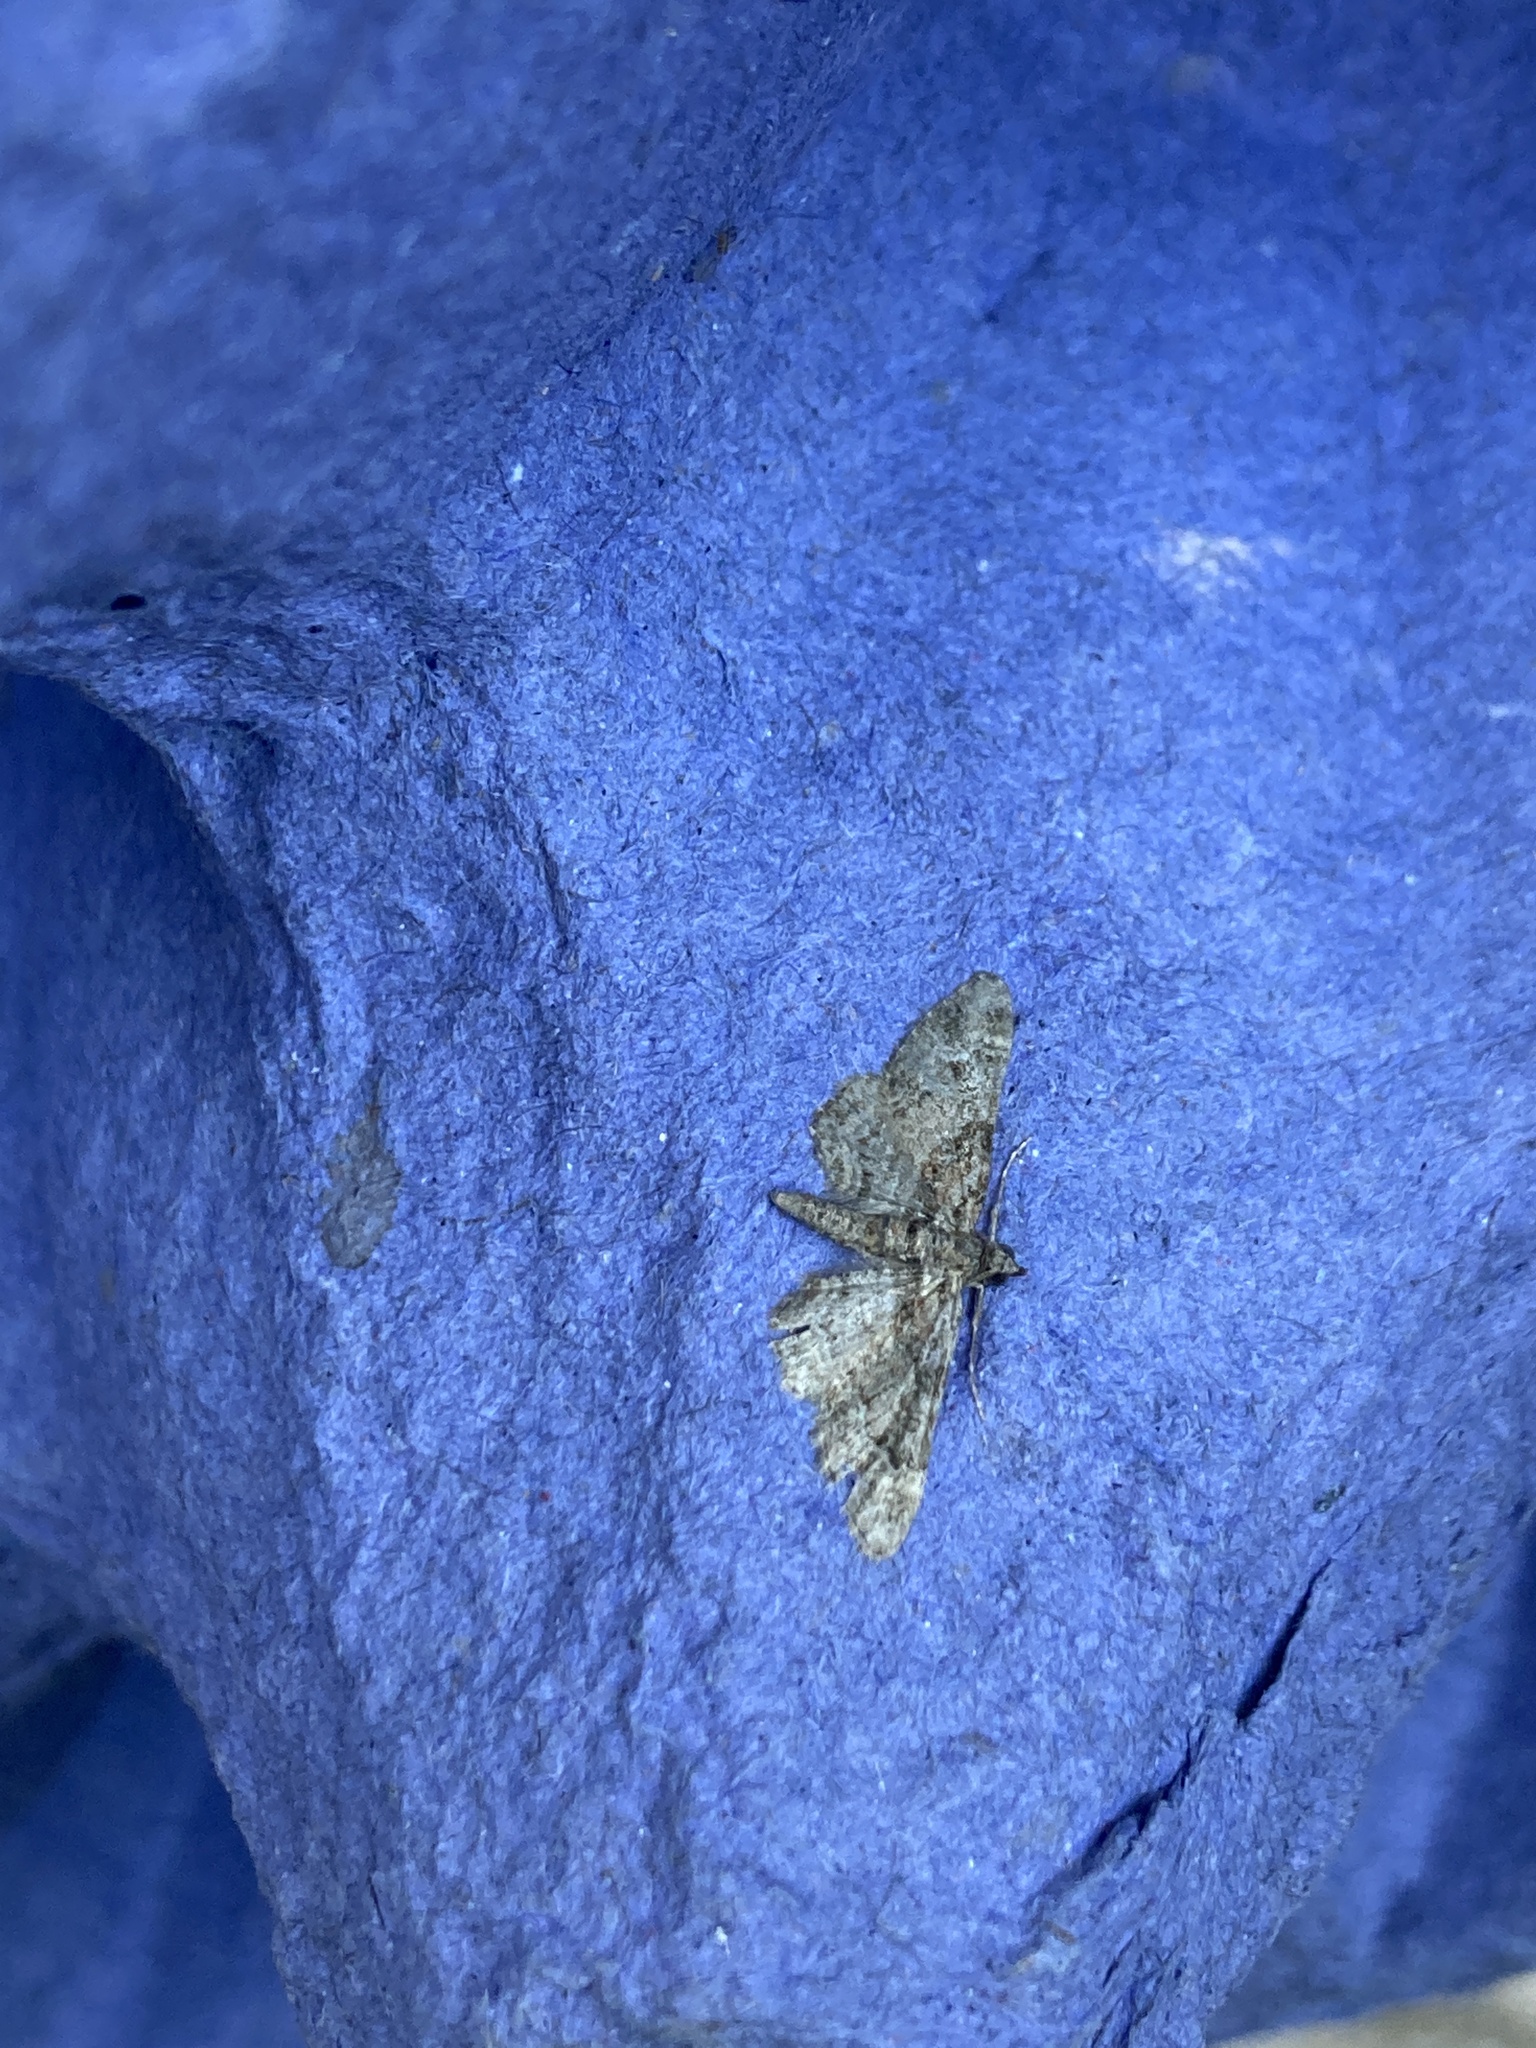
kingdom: Animalia
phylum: Arthropoda
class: Insecta
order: Lepidoptera
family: Geometridae
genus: Gymnoscelis
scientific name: Gymnoscelis rufifasciata
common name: Double-striped pug
